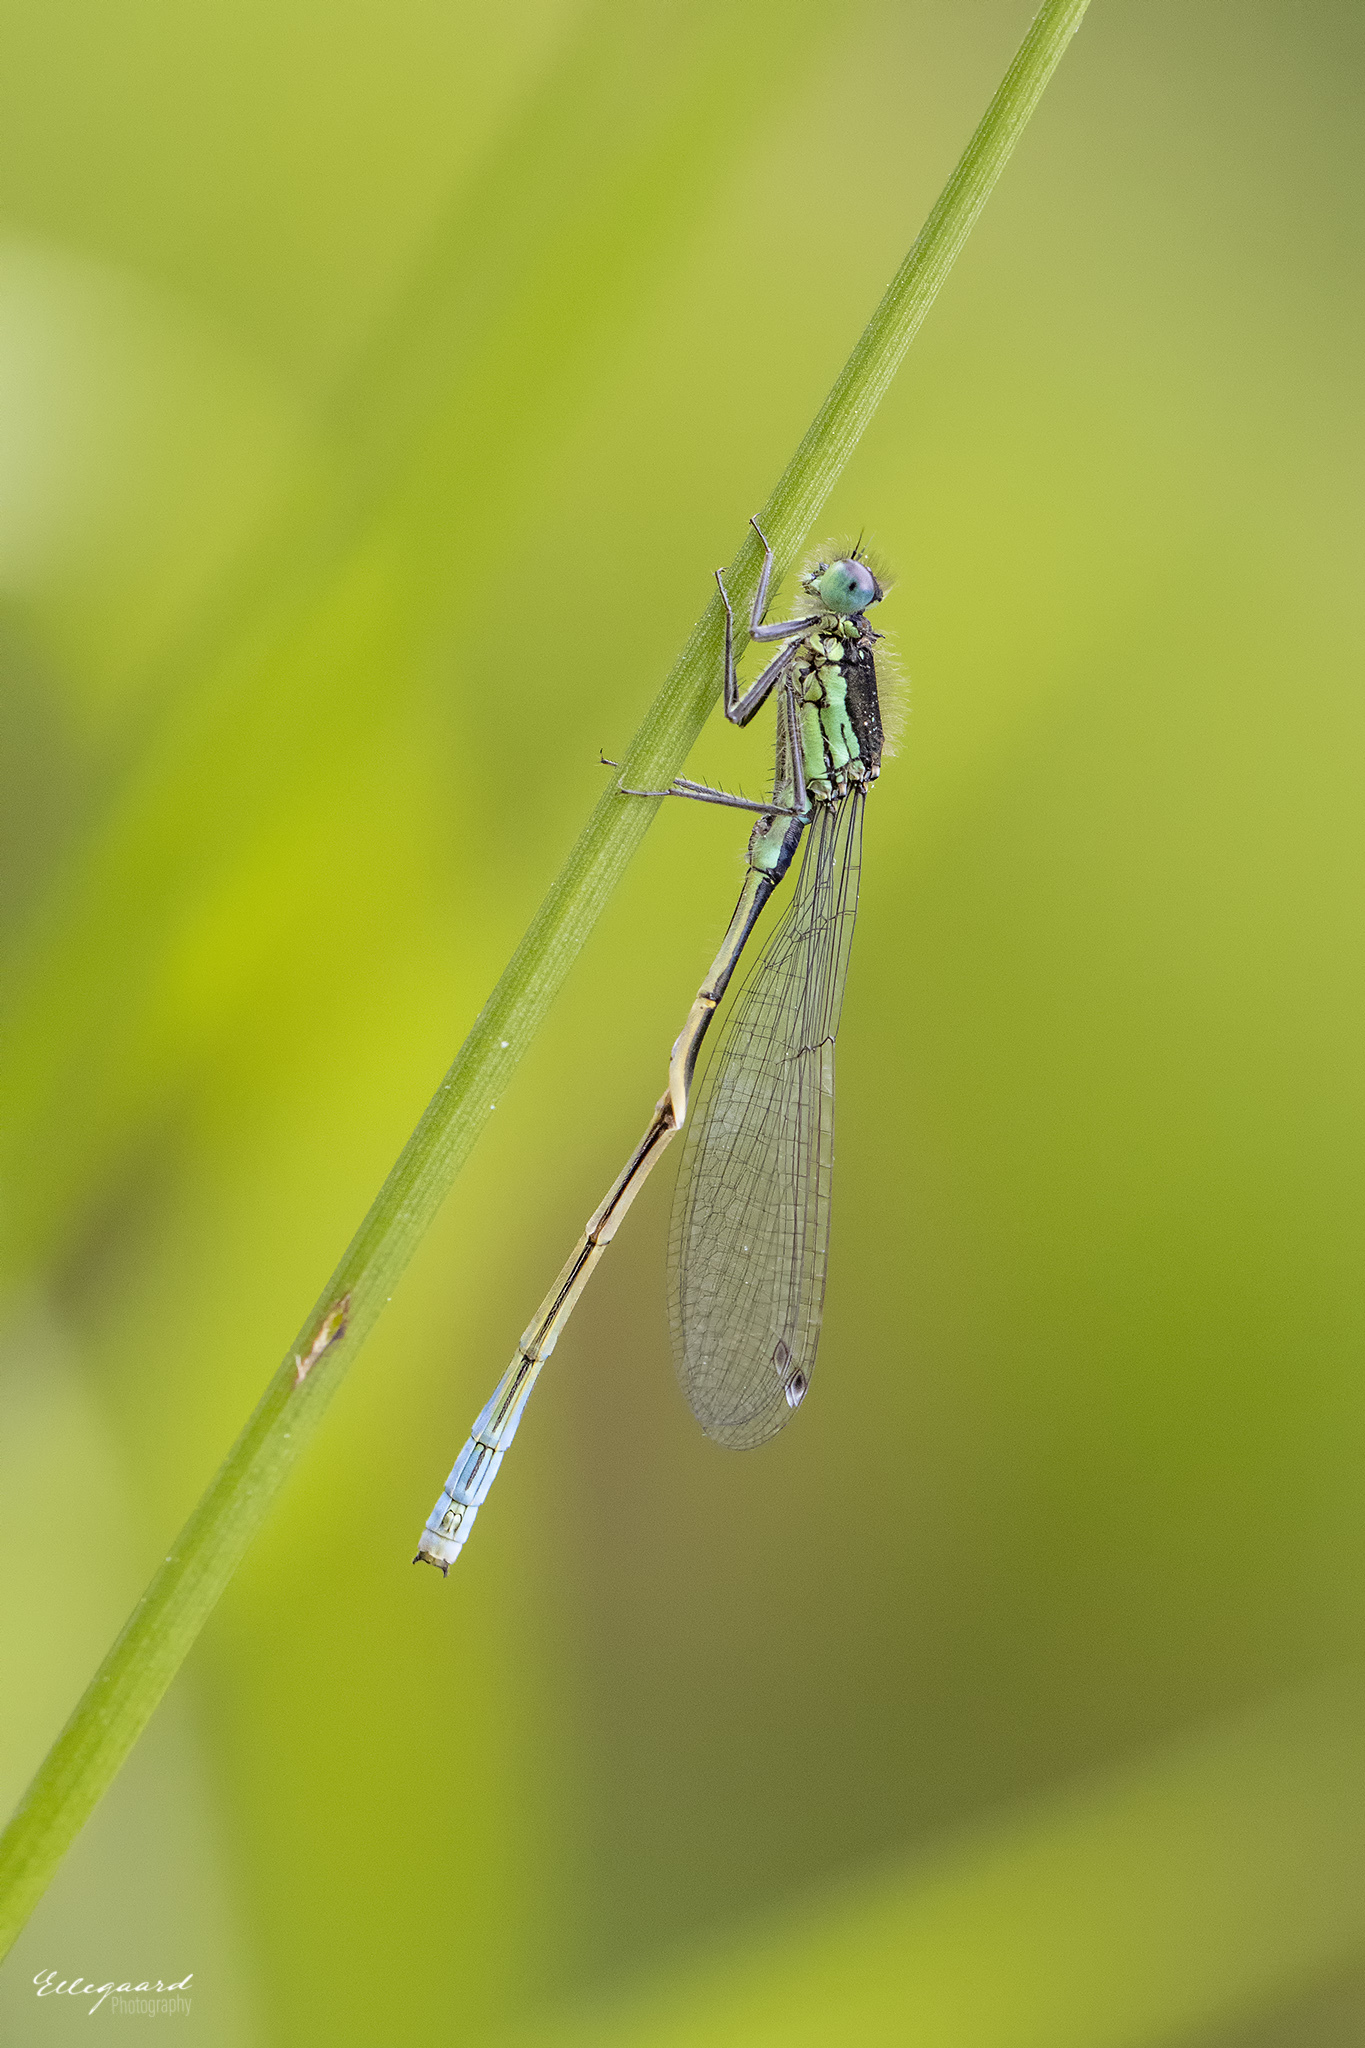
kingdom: Animalia
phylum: Arthropoda
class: Insecta
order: Odonata
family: Coenagrionidae
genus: Ischnura
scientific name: Ischnura elegans
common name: Blue-tailed damselfly
